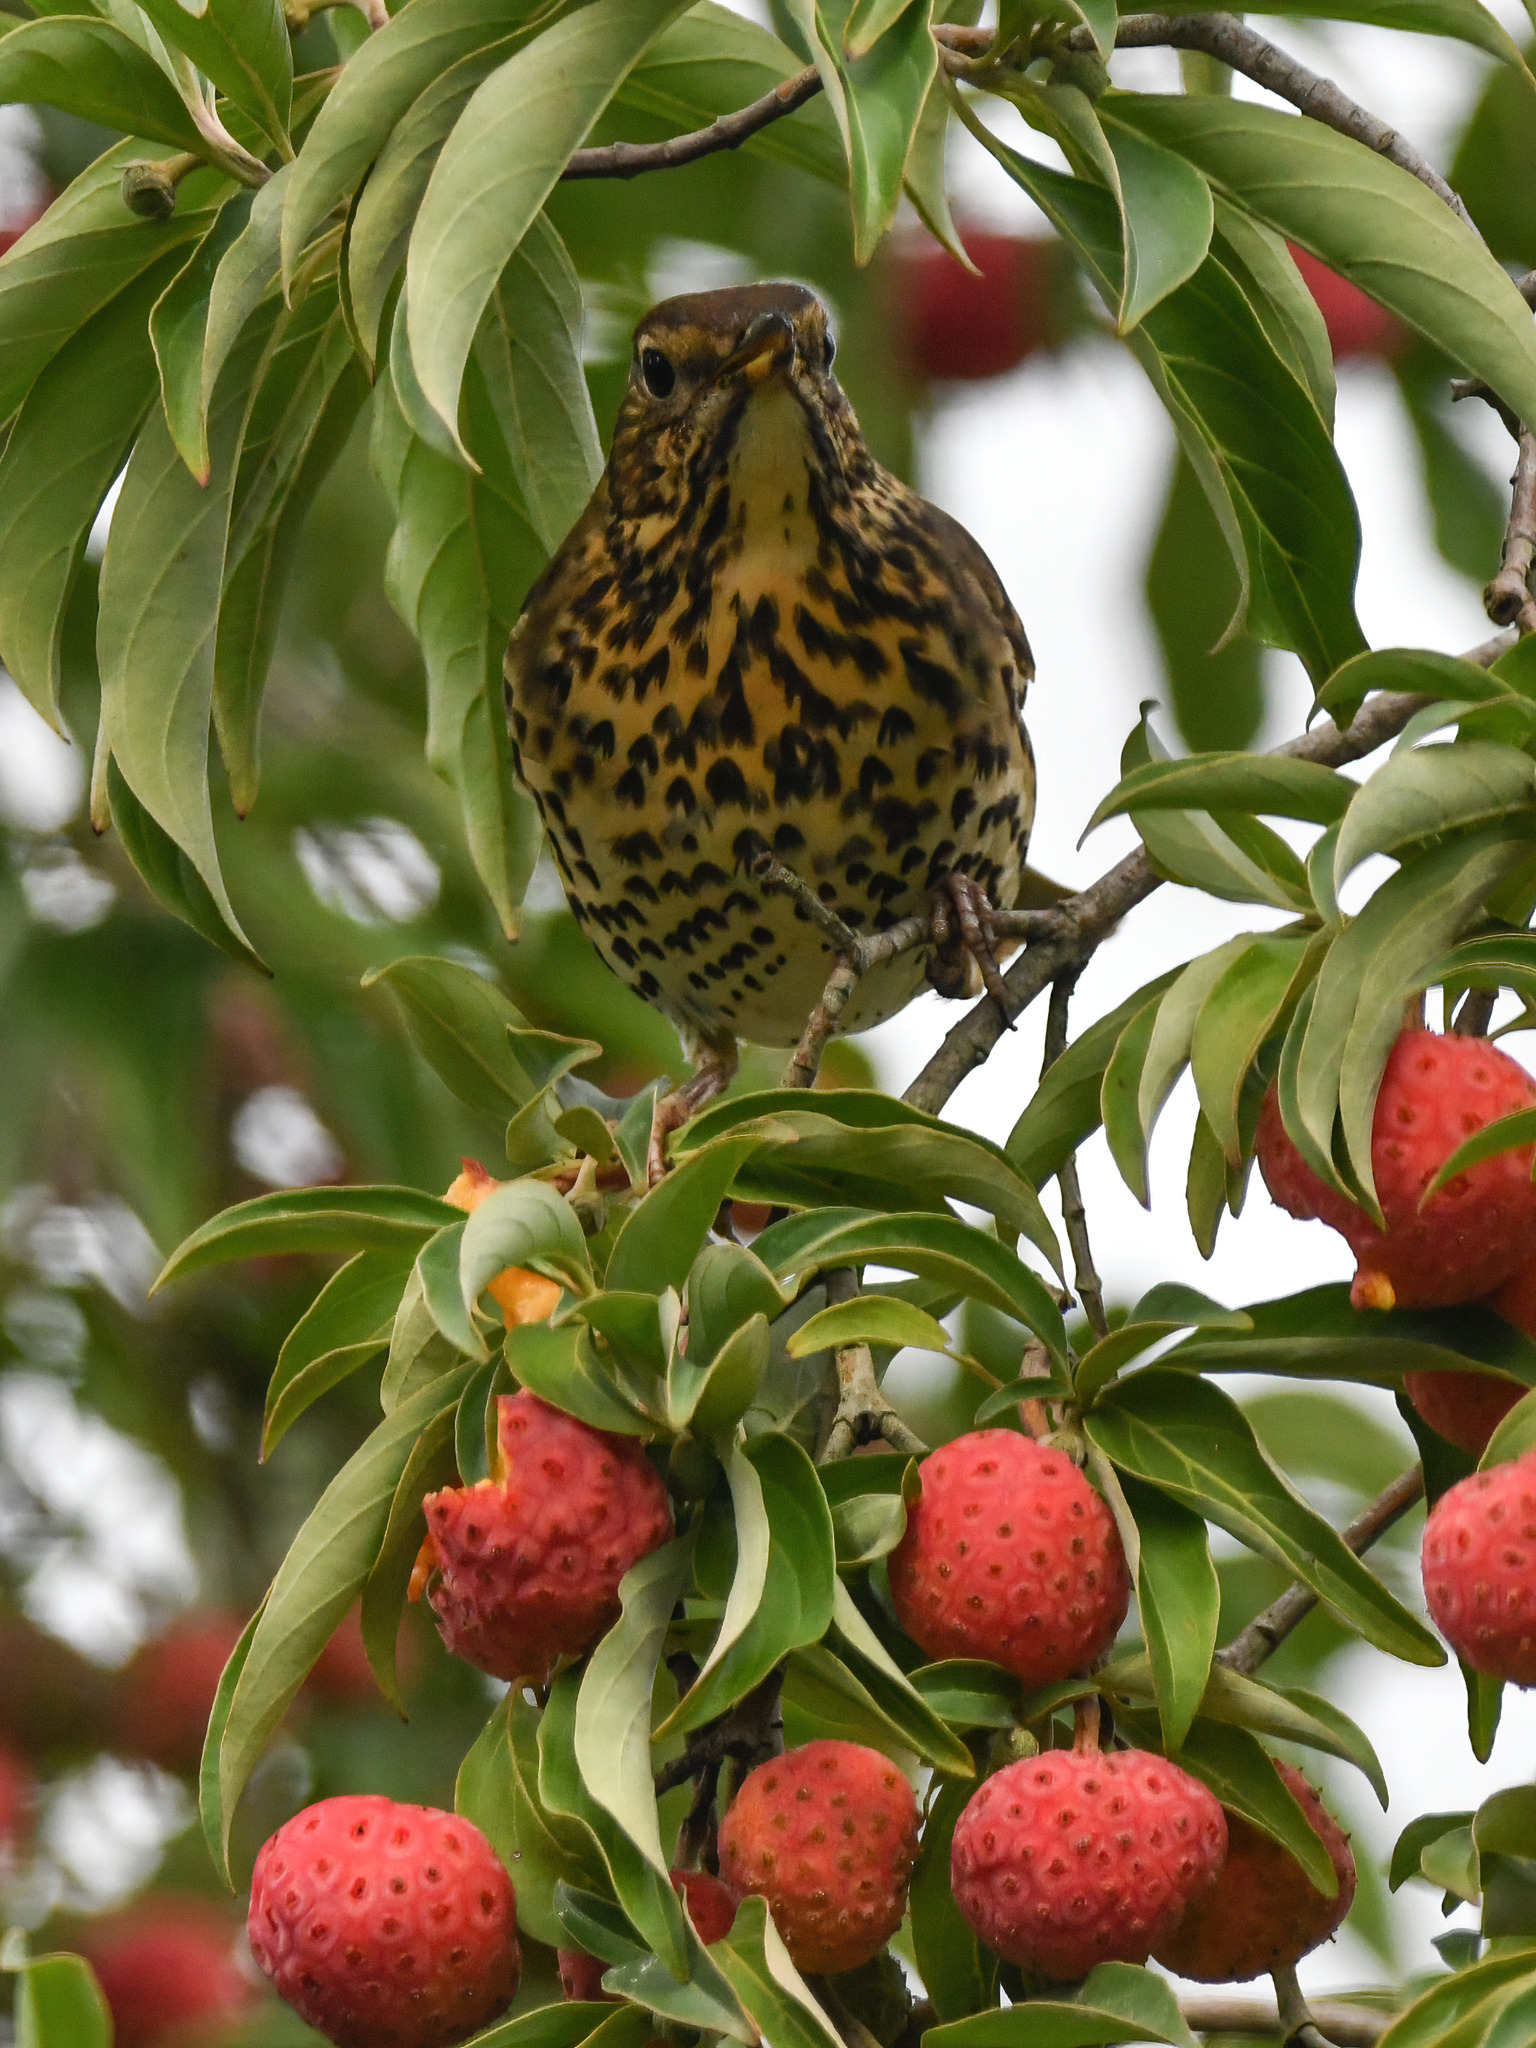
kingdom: Animalia
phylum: Chordata
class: Aves
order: Passeriformes
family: Turdidae
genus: Turdus
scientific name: Turdus philomelos
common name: Song thrush
